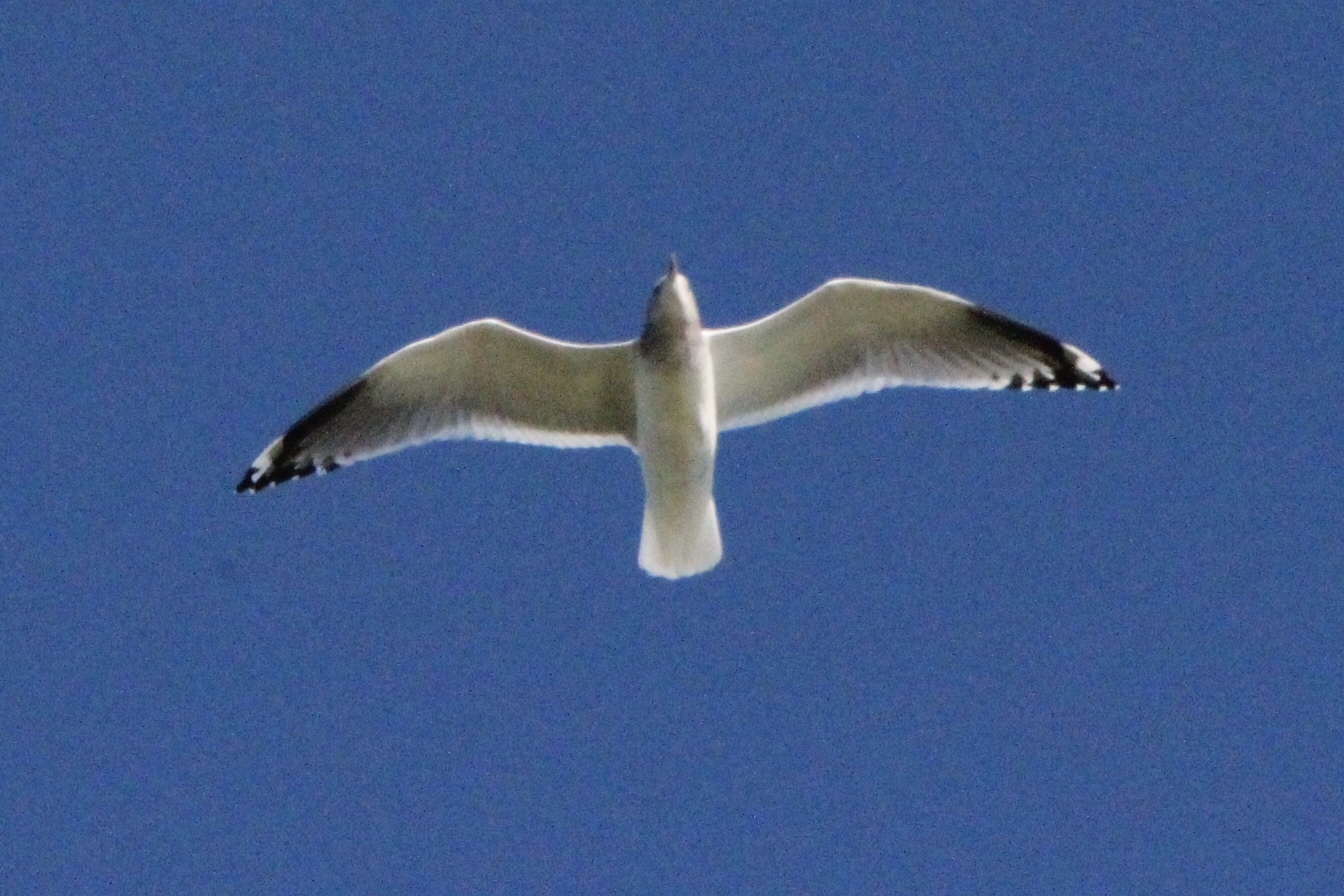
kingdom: Animalia
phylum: Chordata
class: Aves
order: Charadriiformes
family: Laridae
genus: Larus
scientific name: Larus brachyrhynchus
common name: Short-billed gull
